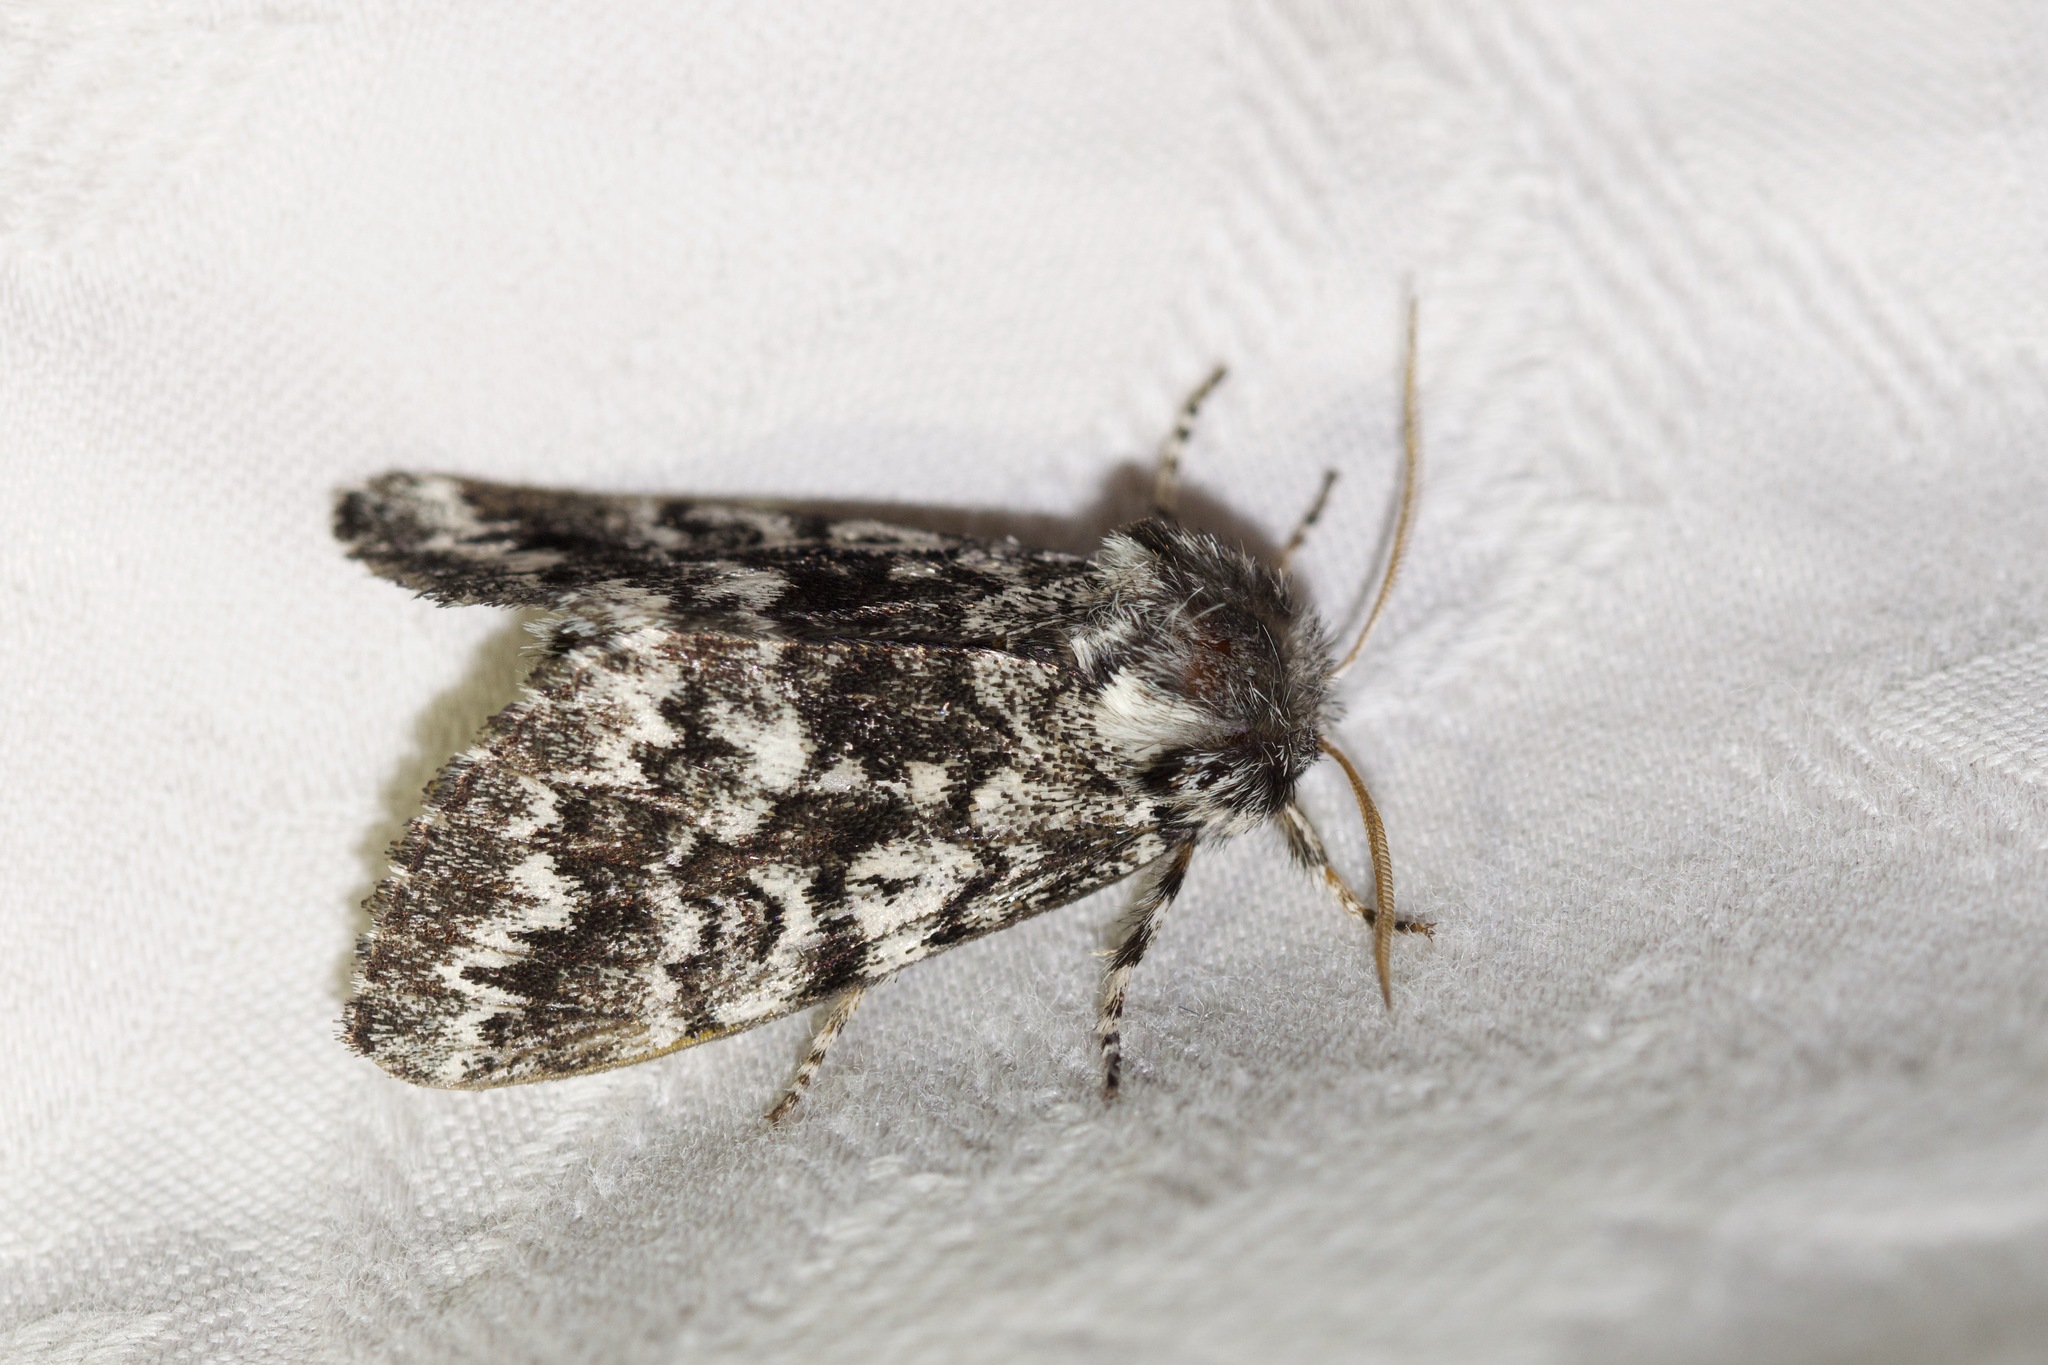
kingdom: Animalia
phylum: Arthropoda
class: Insecta
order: Lepidoptera
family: Noctuidae
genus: Panthea
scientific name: Panthea acronyctoides
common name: Black zigzag moth
